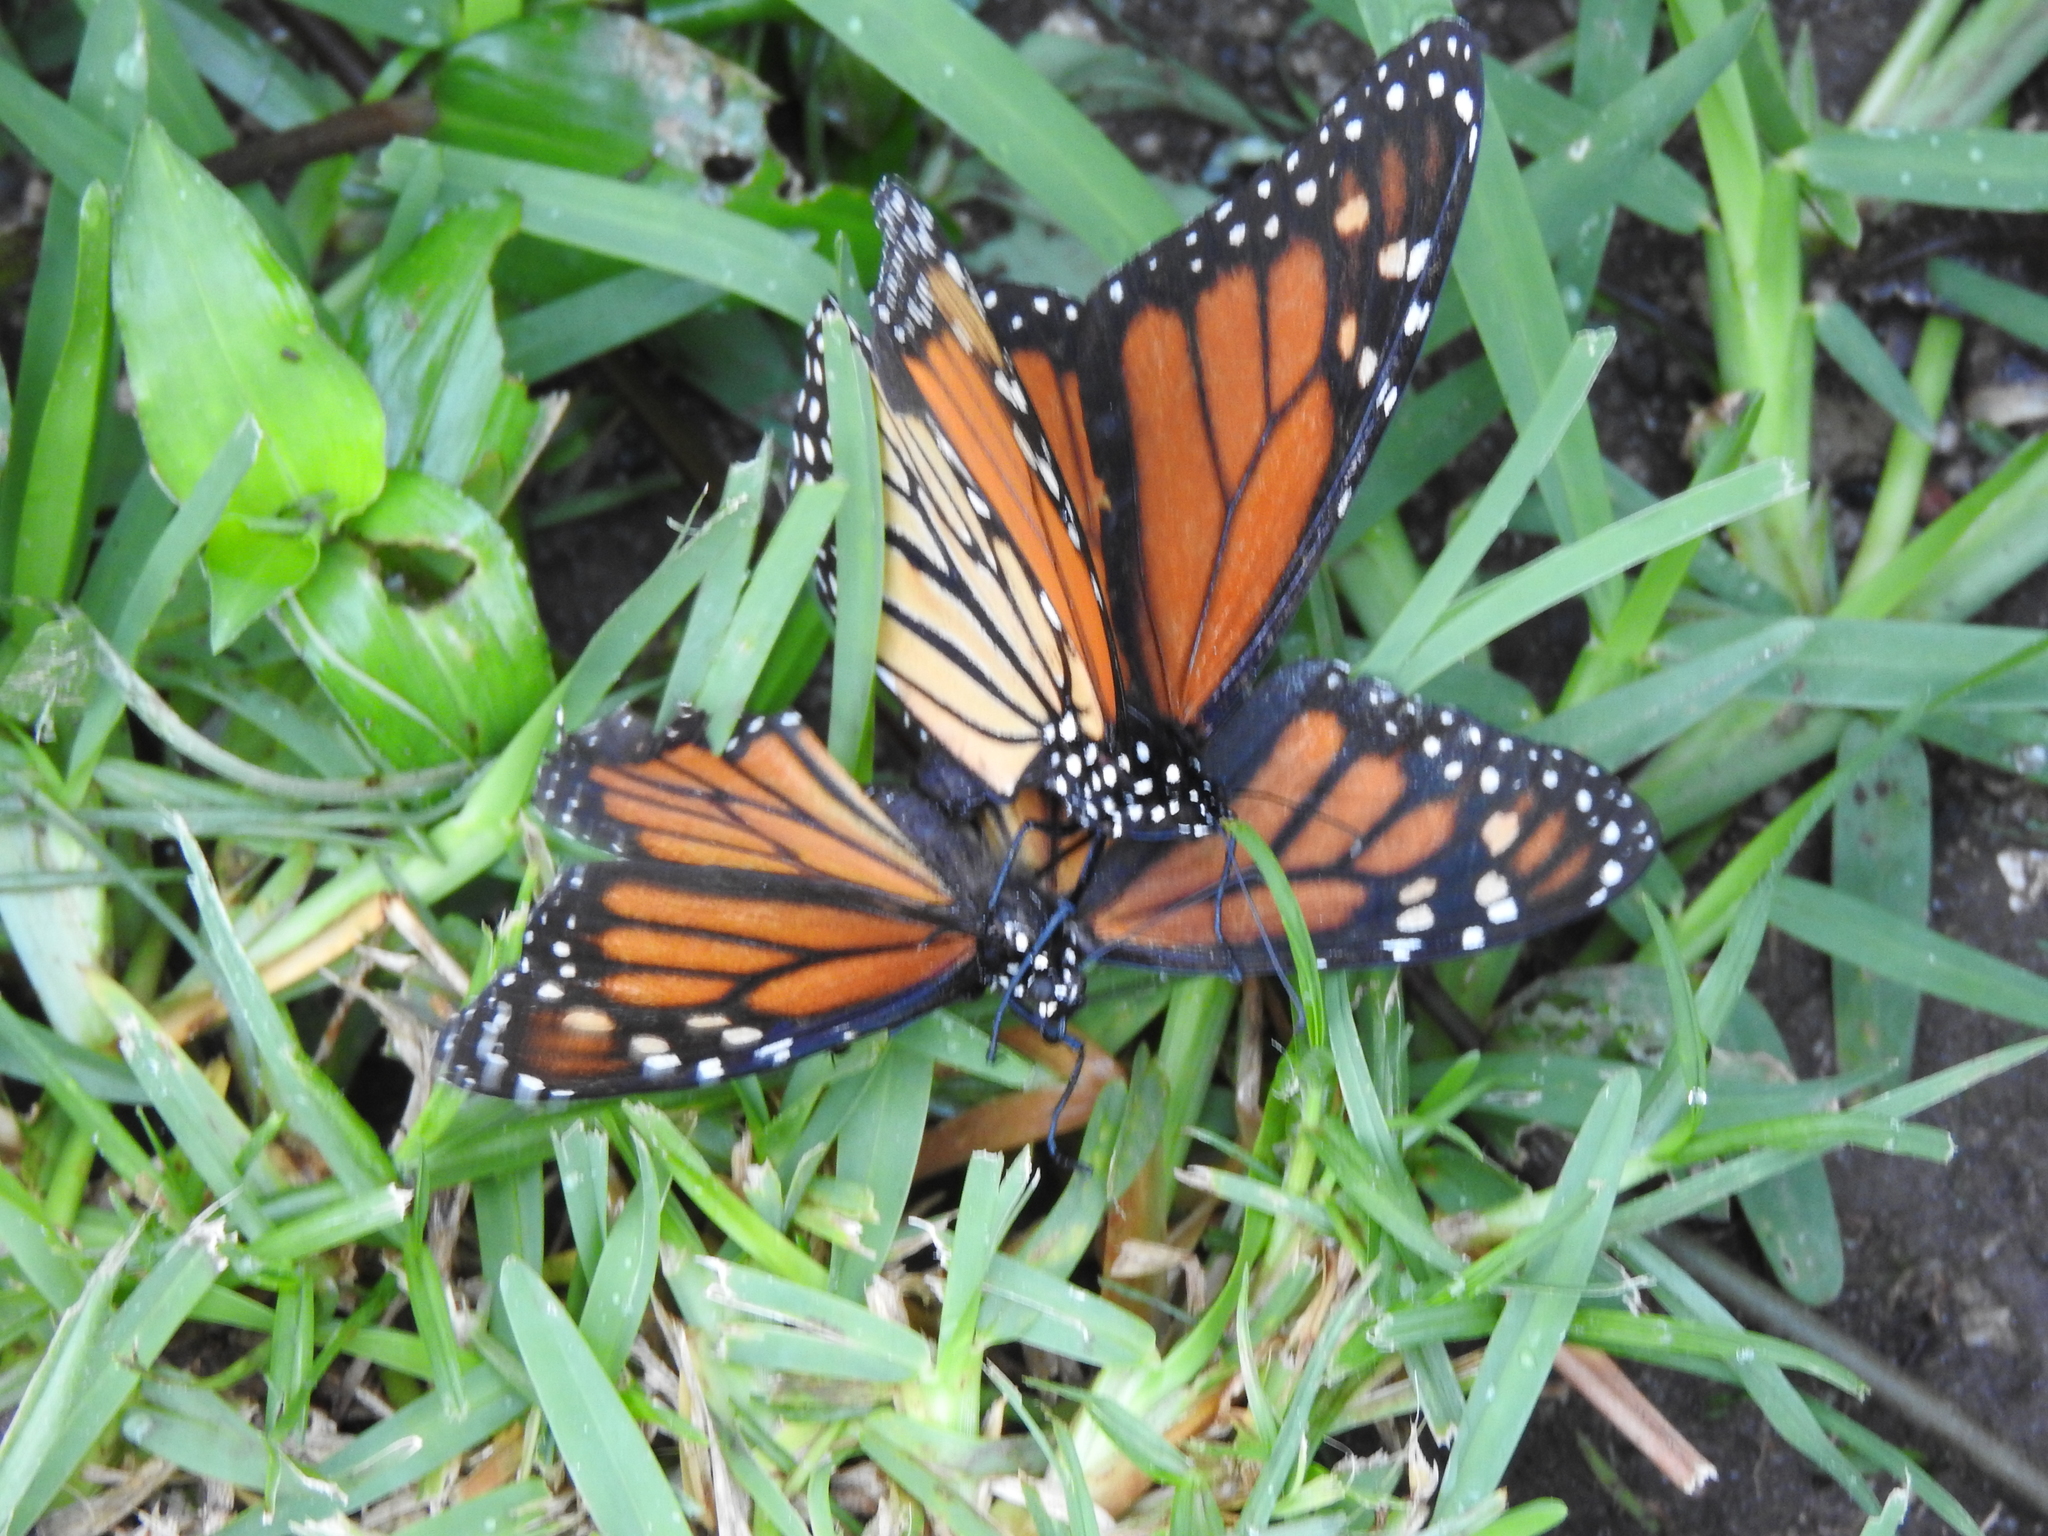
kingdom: Animalia
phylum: Arthropoda
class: Insecta
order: Lepidoptera
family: Nymphalidae
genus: Danaus
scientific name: Danaus plexippus
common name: Monarch
